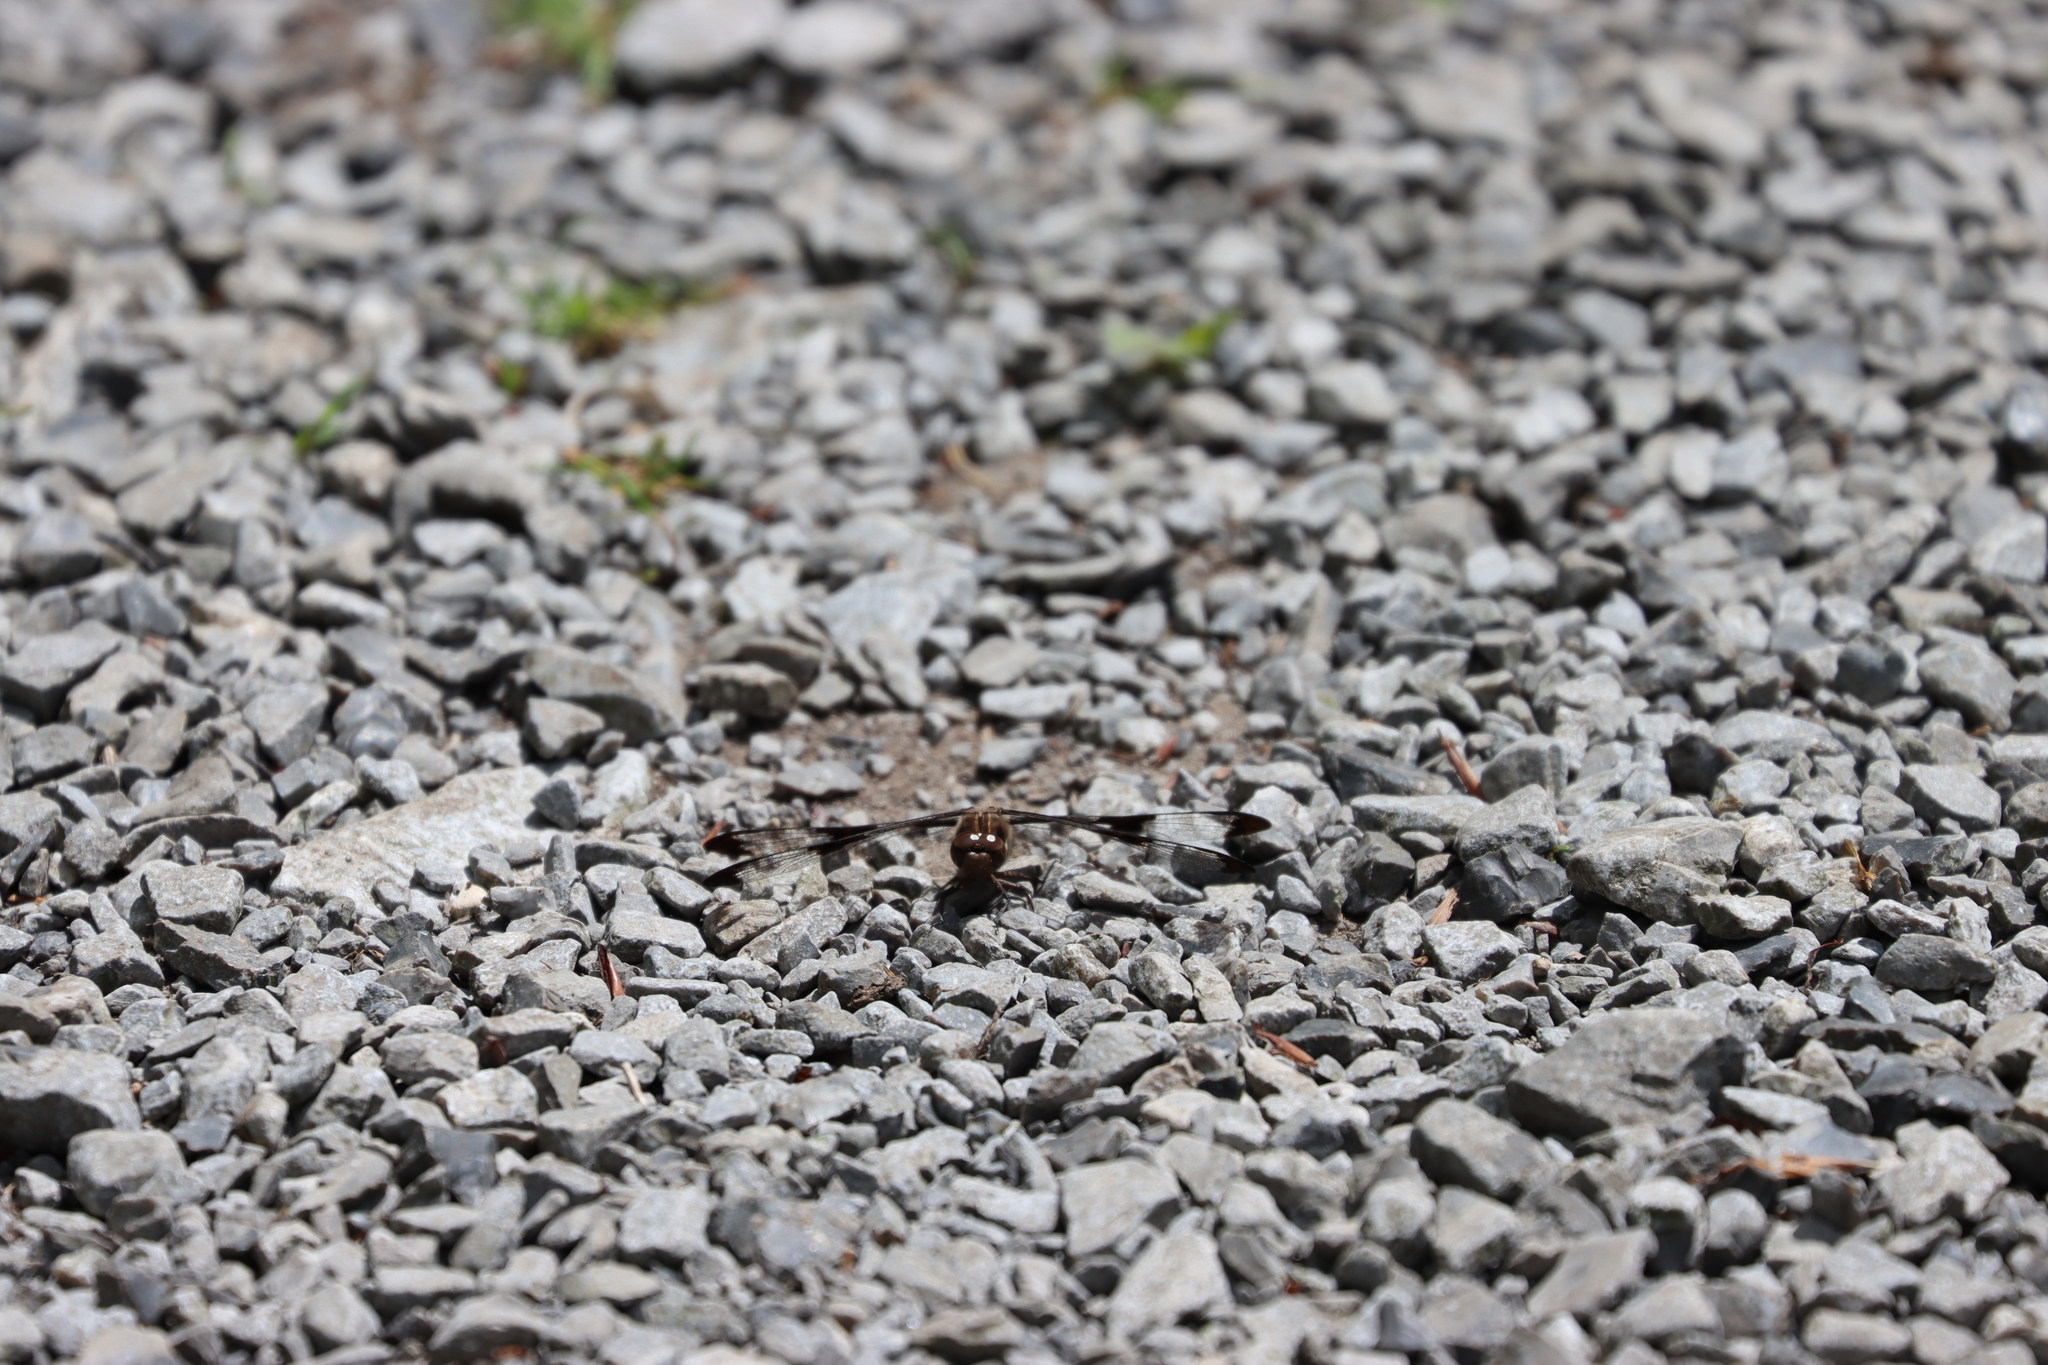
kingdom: Animalia
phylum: Arthropoda
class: Insecta
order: Odonata
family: Libellulidae
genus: Plathemis
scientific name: Plathemis lydia
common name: Common whitetail
